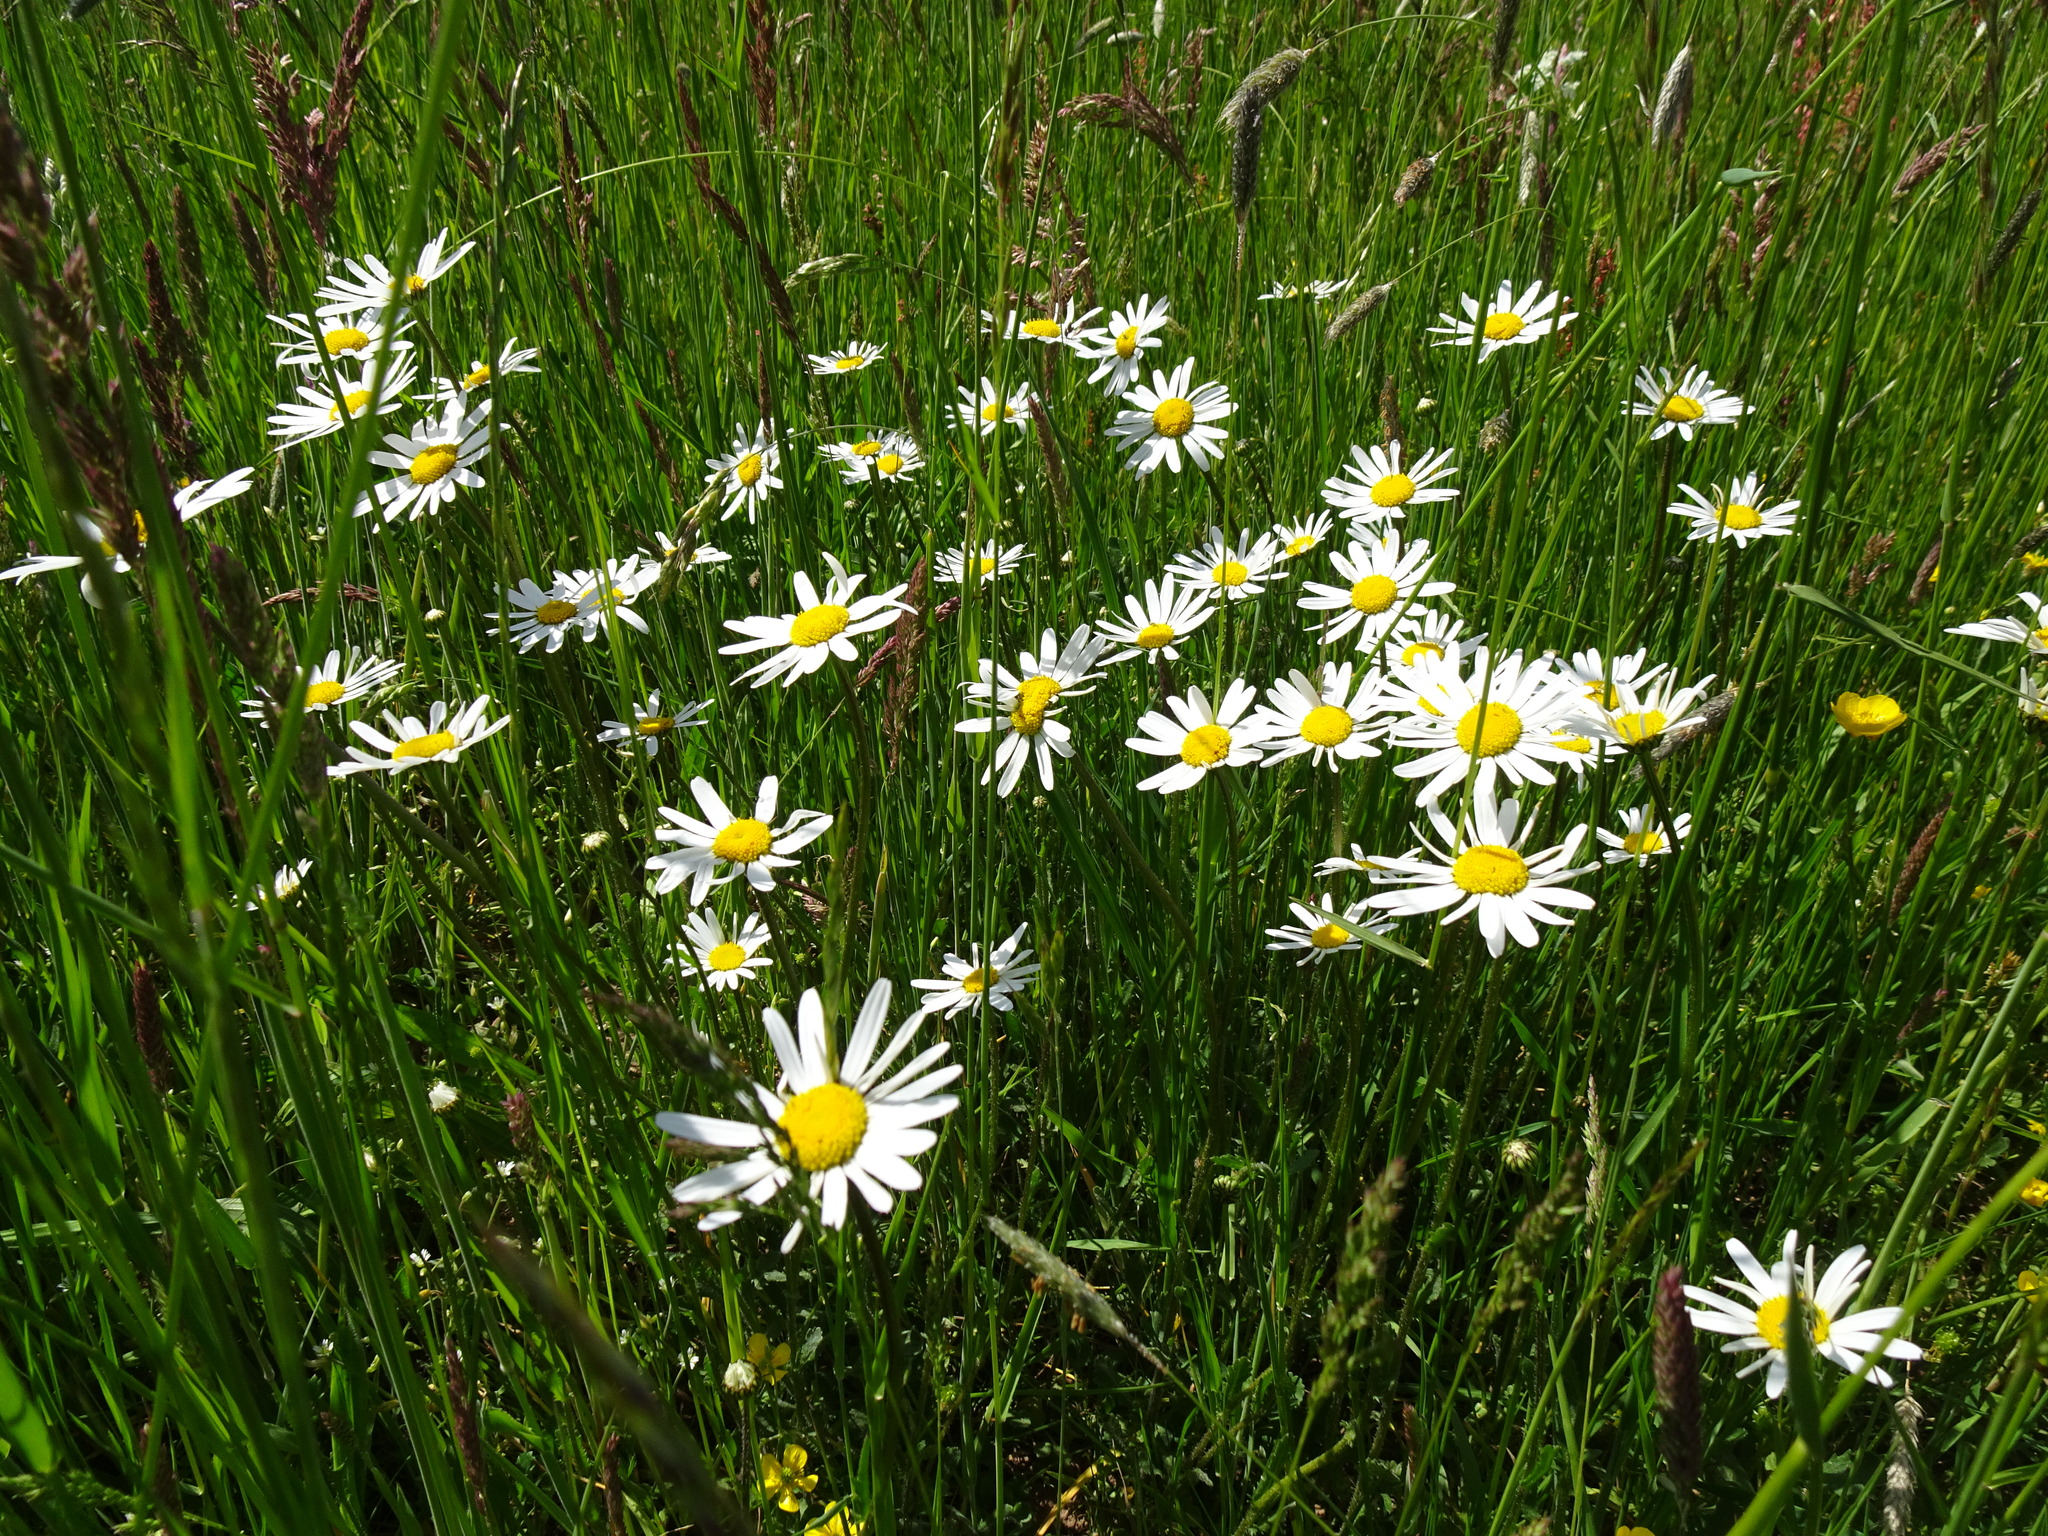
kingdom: Plantae
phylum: Tracheophyta
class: Magnoliopsida
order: Asterales
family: Asteraceae
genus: Leucanthemum
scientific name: Leucanthemum ircutianum
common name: Daisy
